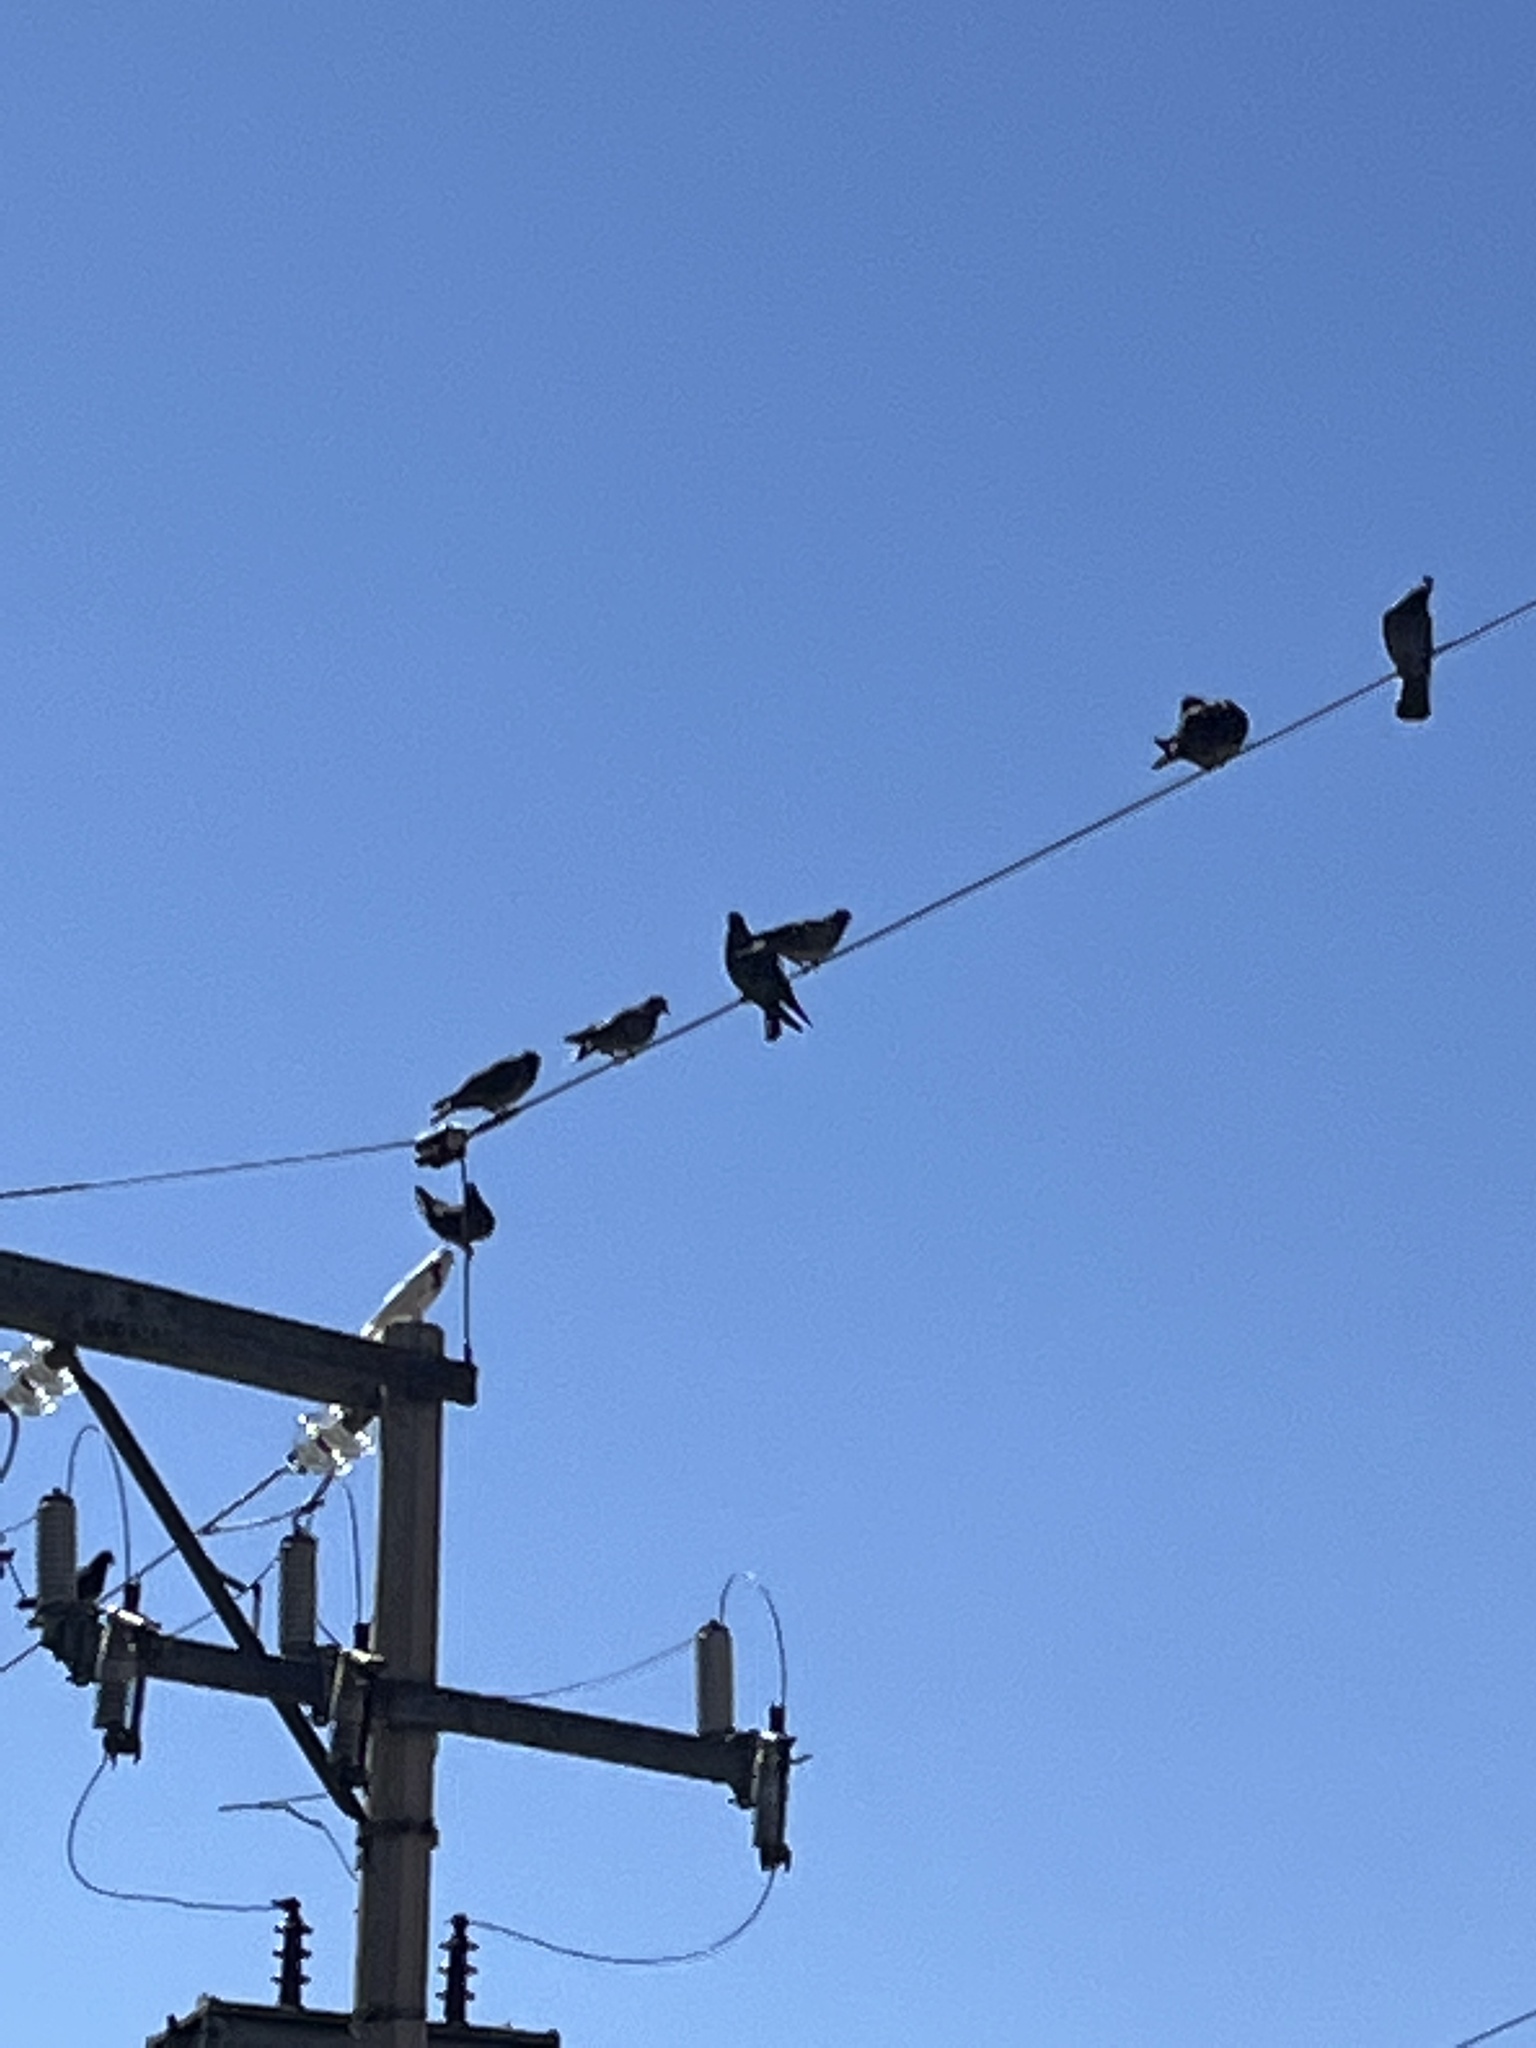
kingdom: Animalia
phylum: Chordata
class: Aves
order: Columbiformes
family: Columbidae
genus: Columba
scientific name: Columba livia
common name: Rock pigeon
